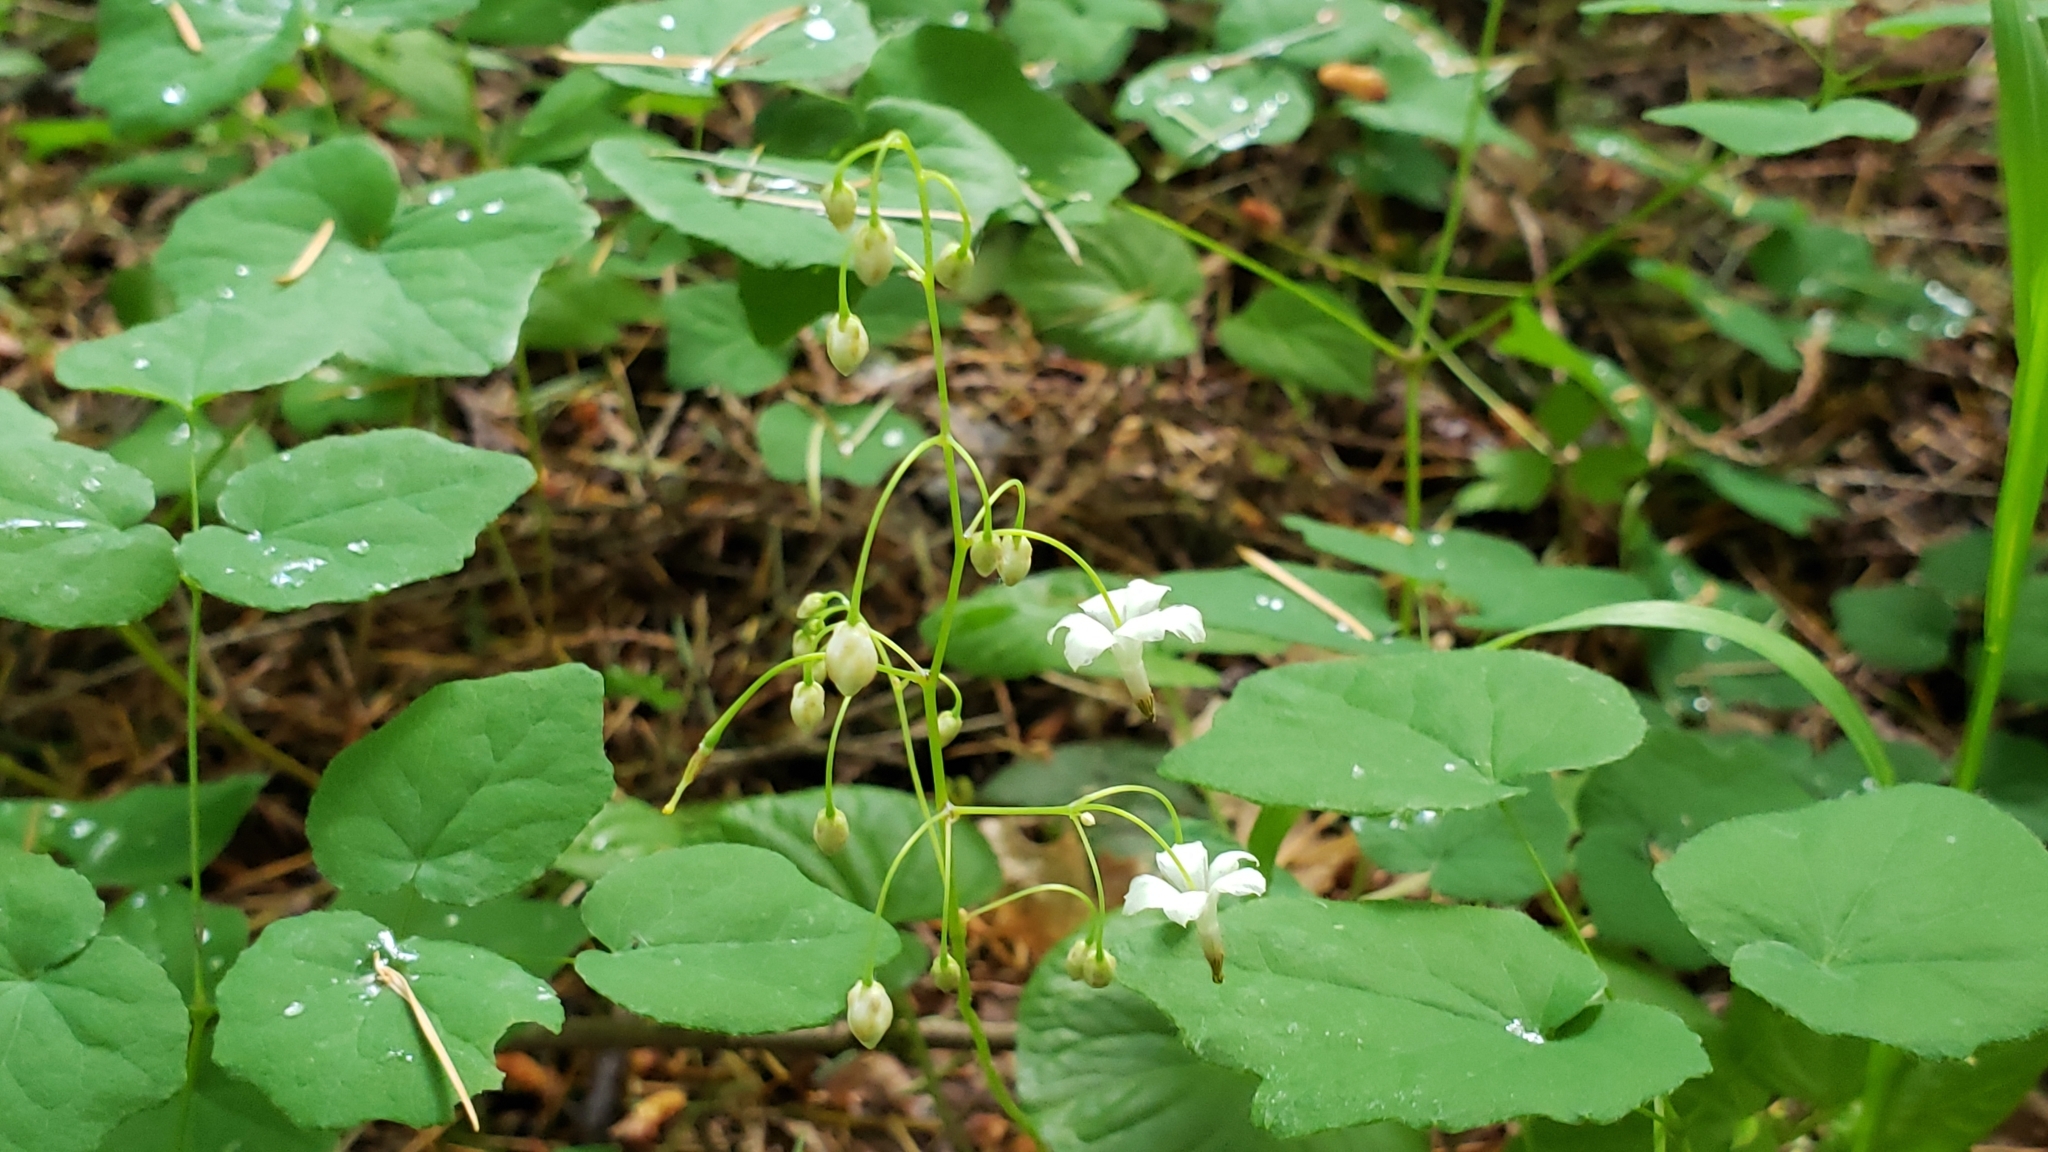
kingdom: Plantae
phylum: Tracheophyta
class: Magnoliopsida
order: Ranunculales
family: Berberidaceae
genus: Vancouveria
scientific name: Vancouveria hexandra
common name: Northern inside-out-flower
